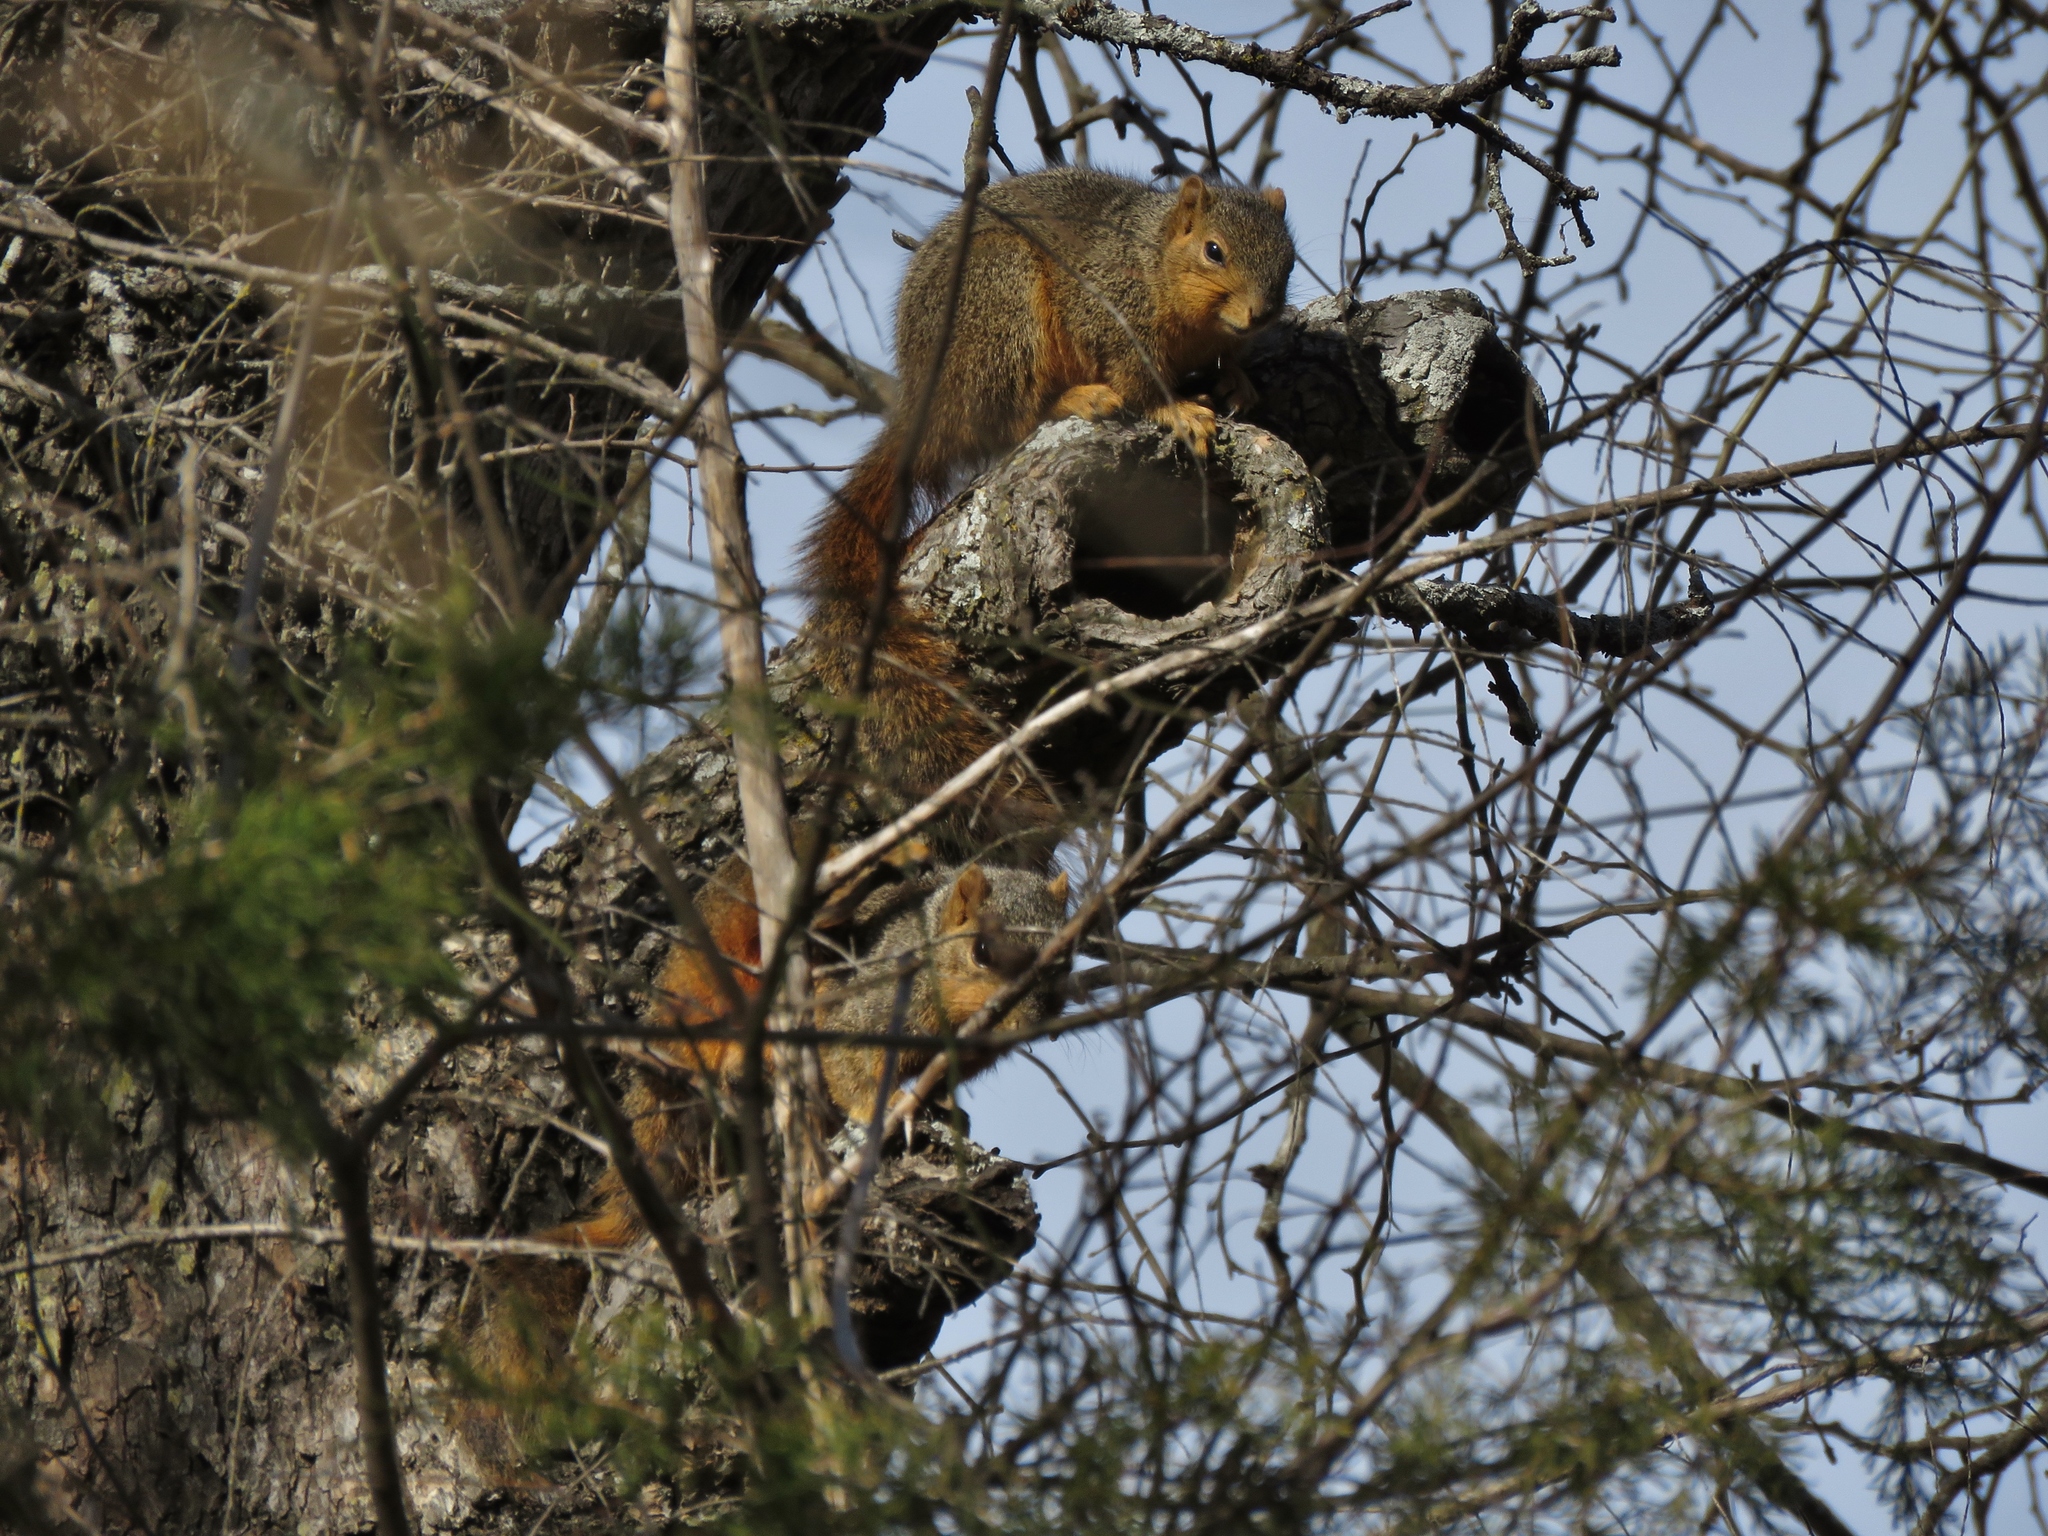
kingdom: Animalia
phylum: Chordata
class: Mammalia
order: Rodentia
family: Sciuridae
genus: Sciurus
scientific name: Sciurus niger
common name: Fox squirrel
